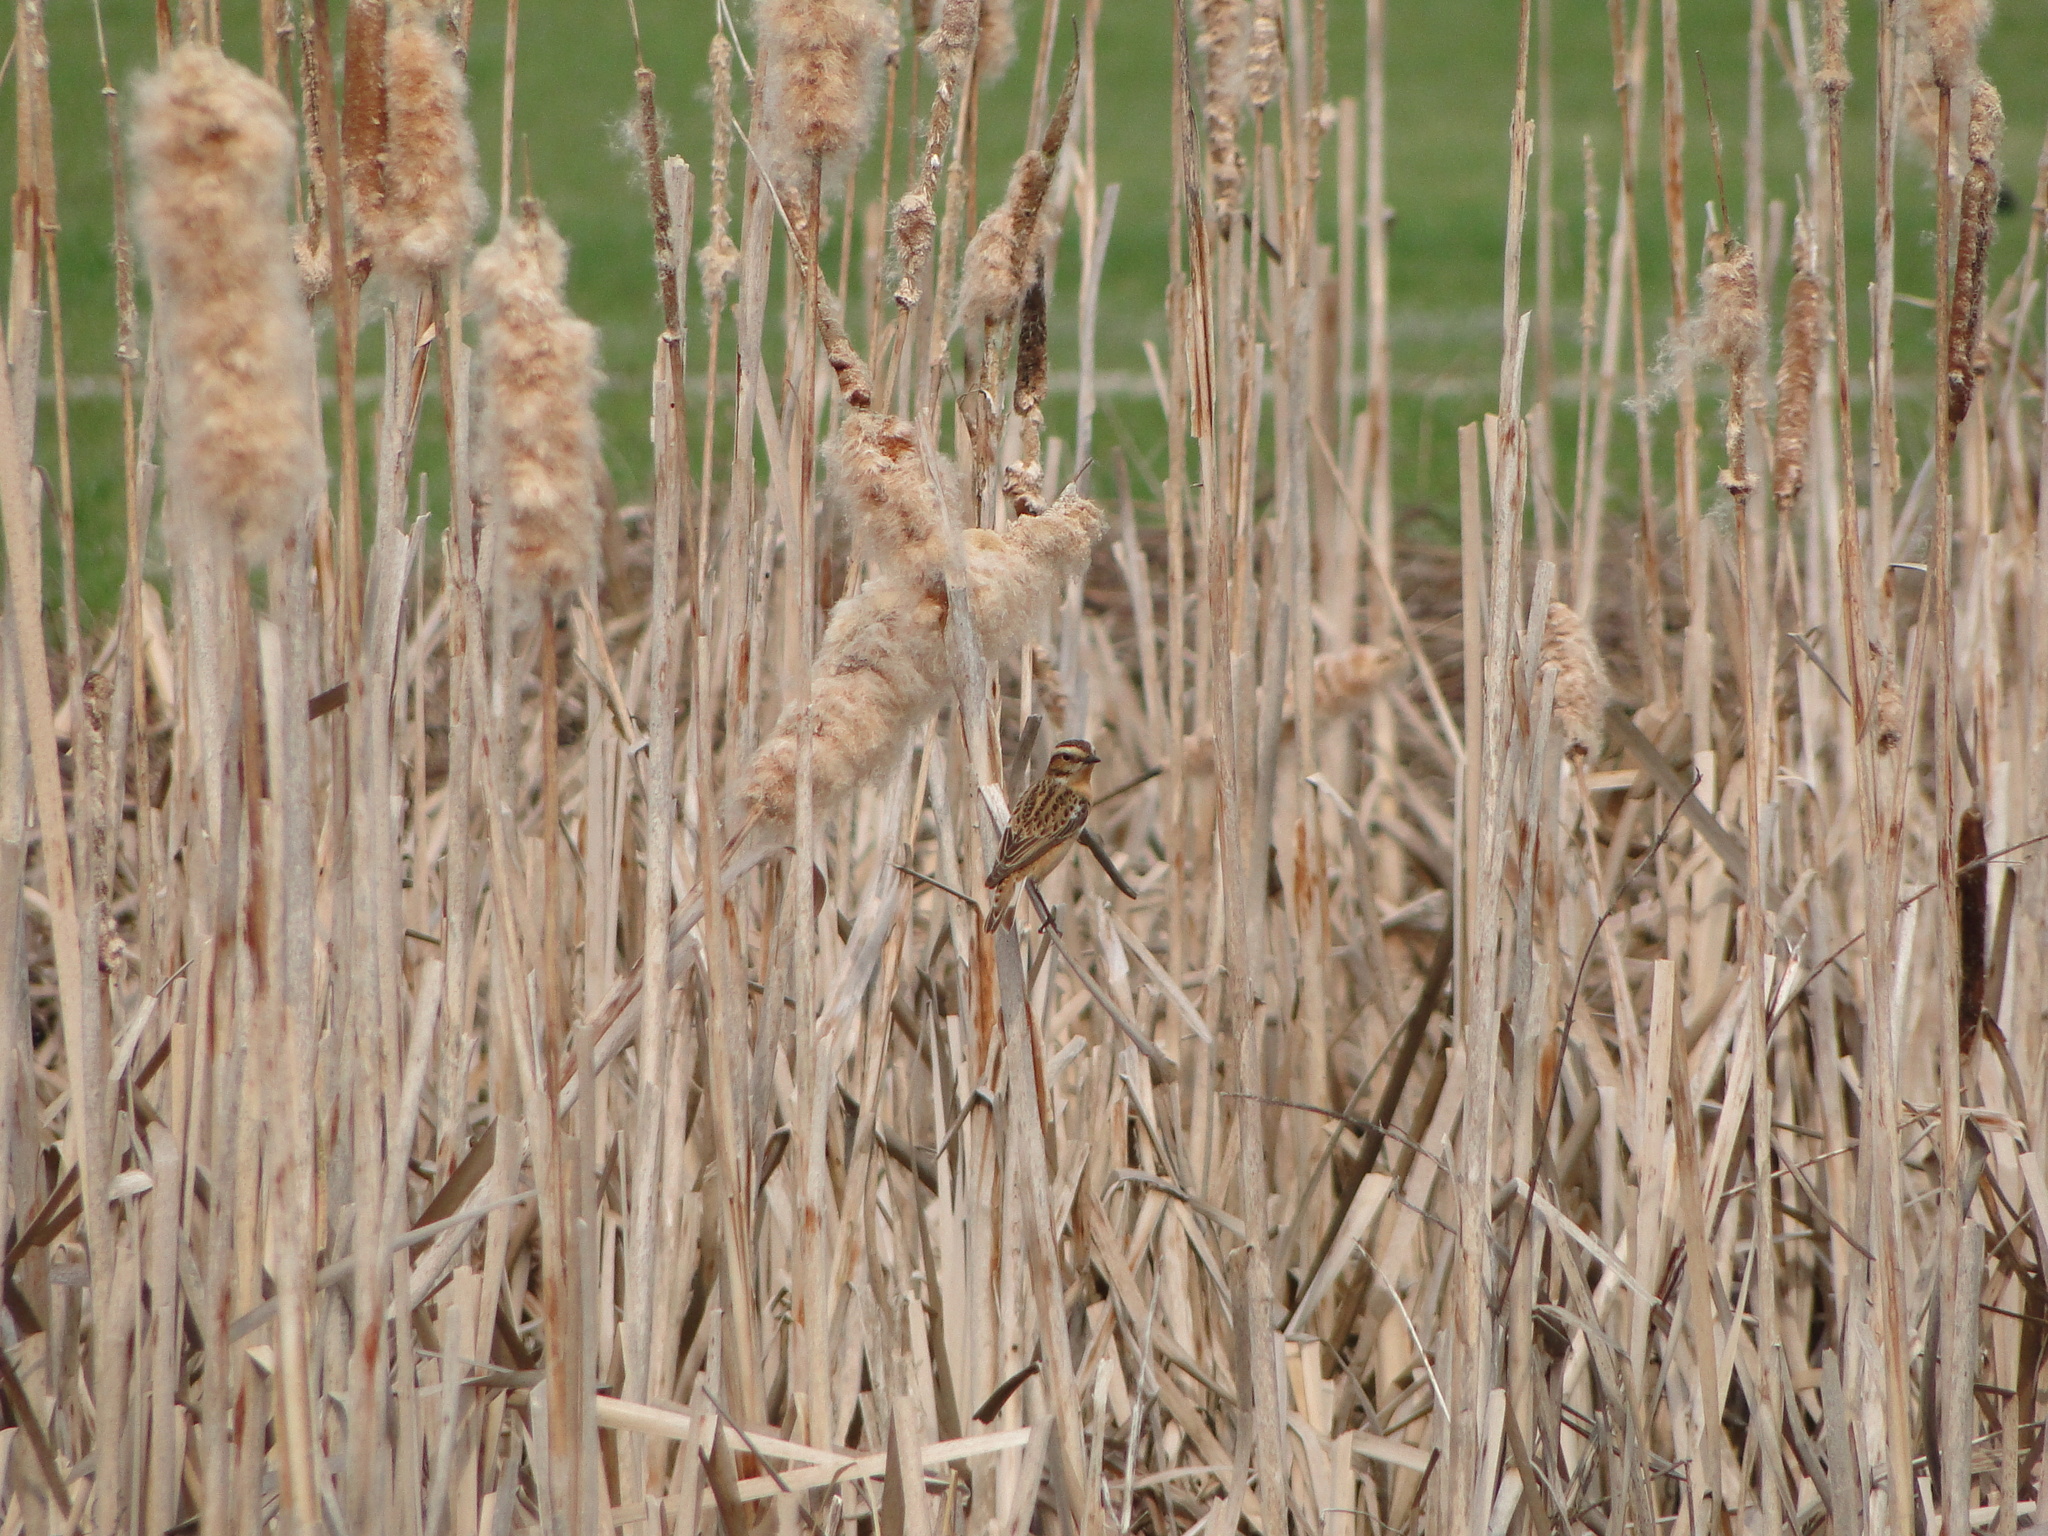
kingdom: Animalia
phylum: Chordata
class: Aves
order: Passeriformes
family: Muscicapidae
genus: Saxicola
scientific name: Saxicola rubetra
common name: Whinchat
